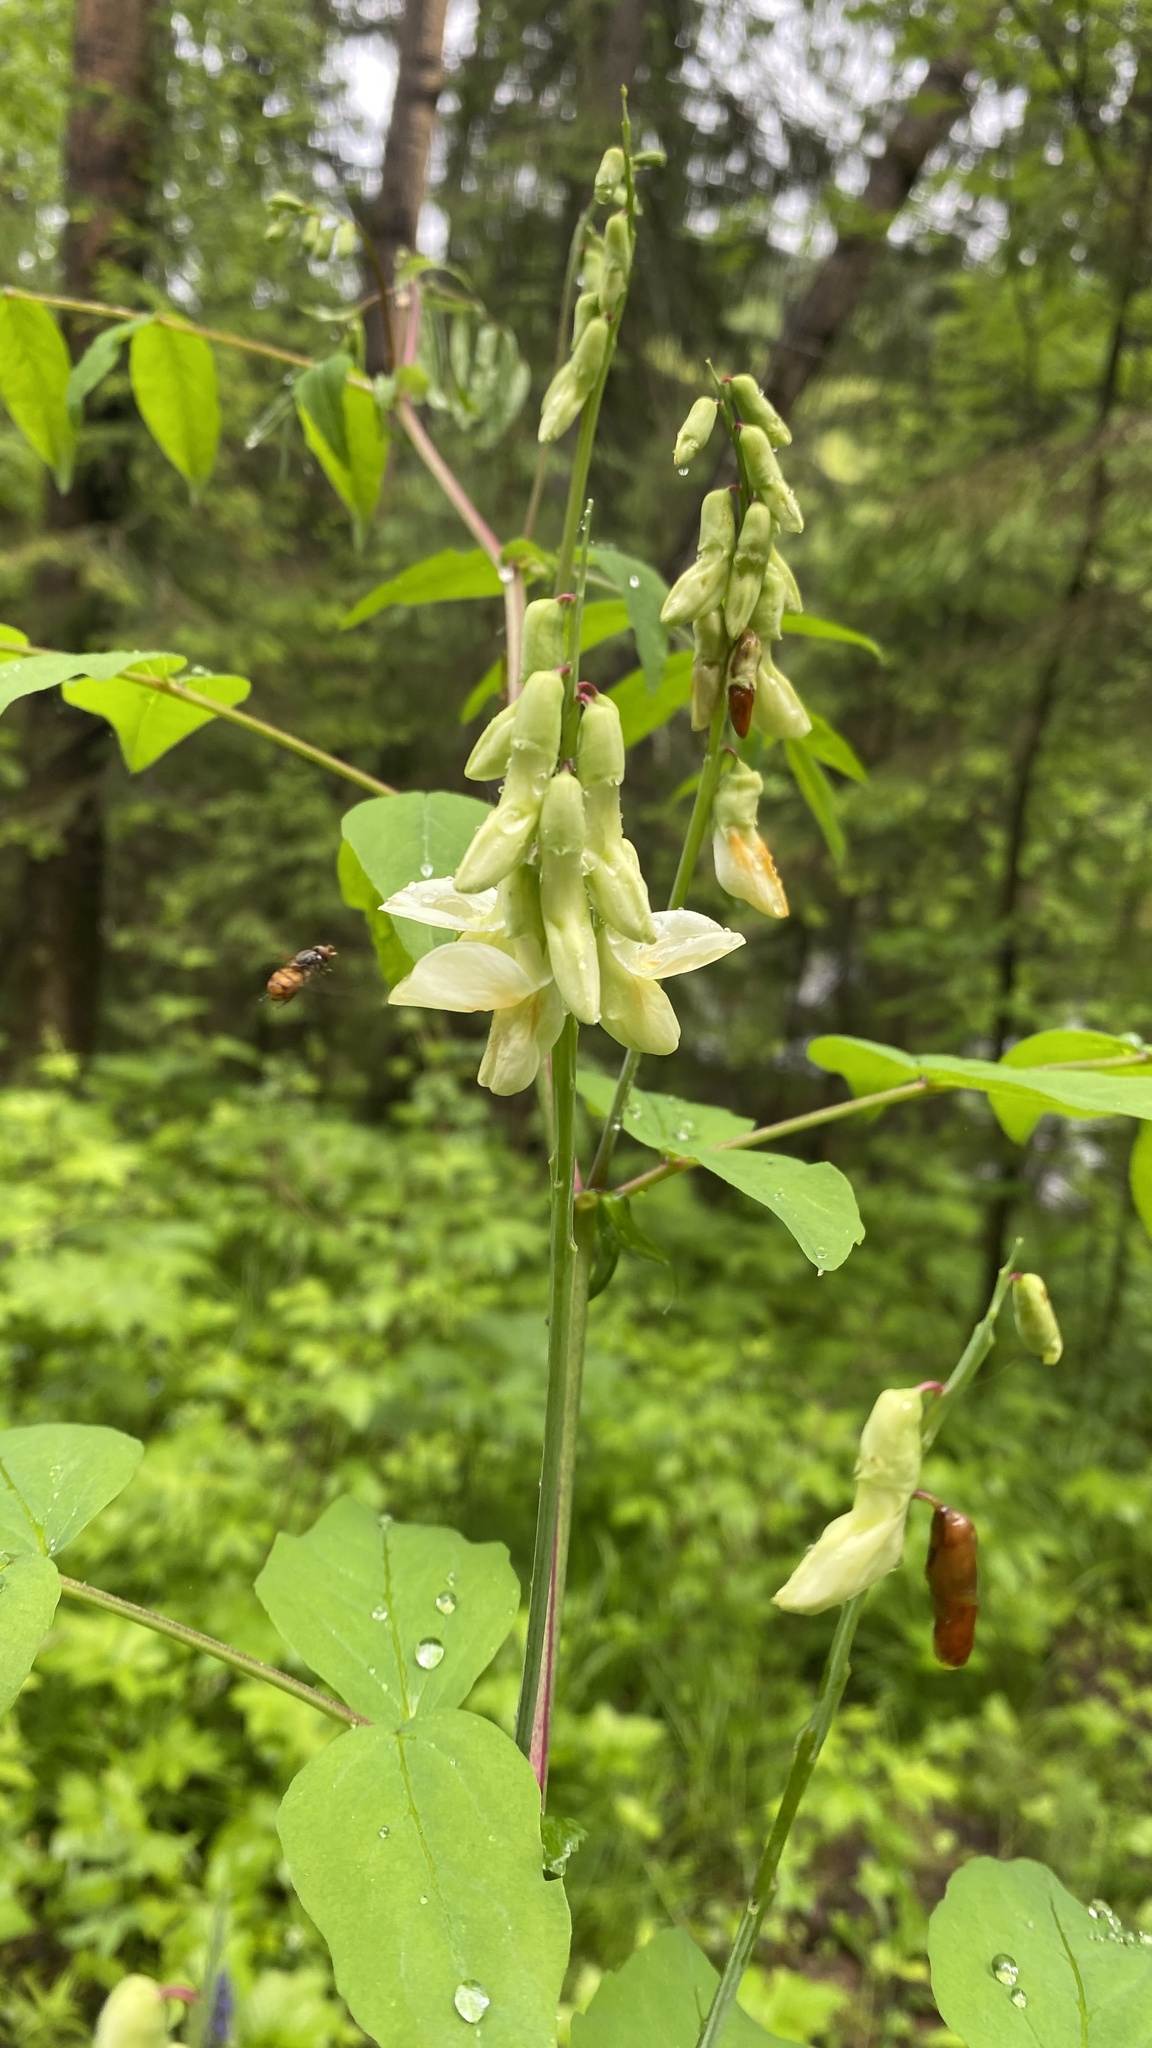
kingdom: Plantae
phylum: Tracheophyta
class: Magnoliopsida
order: Fabales
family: Fabaceae
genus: Lathyrus
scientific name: Lathyrus gmelinii
